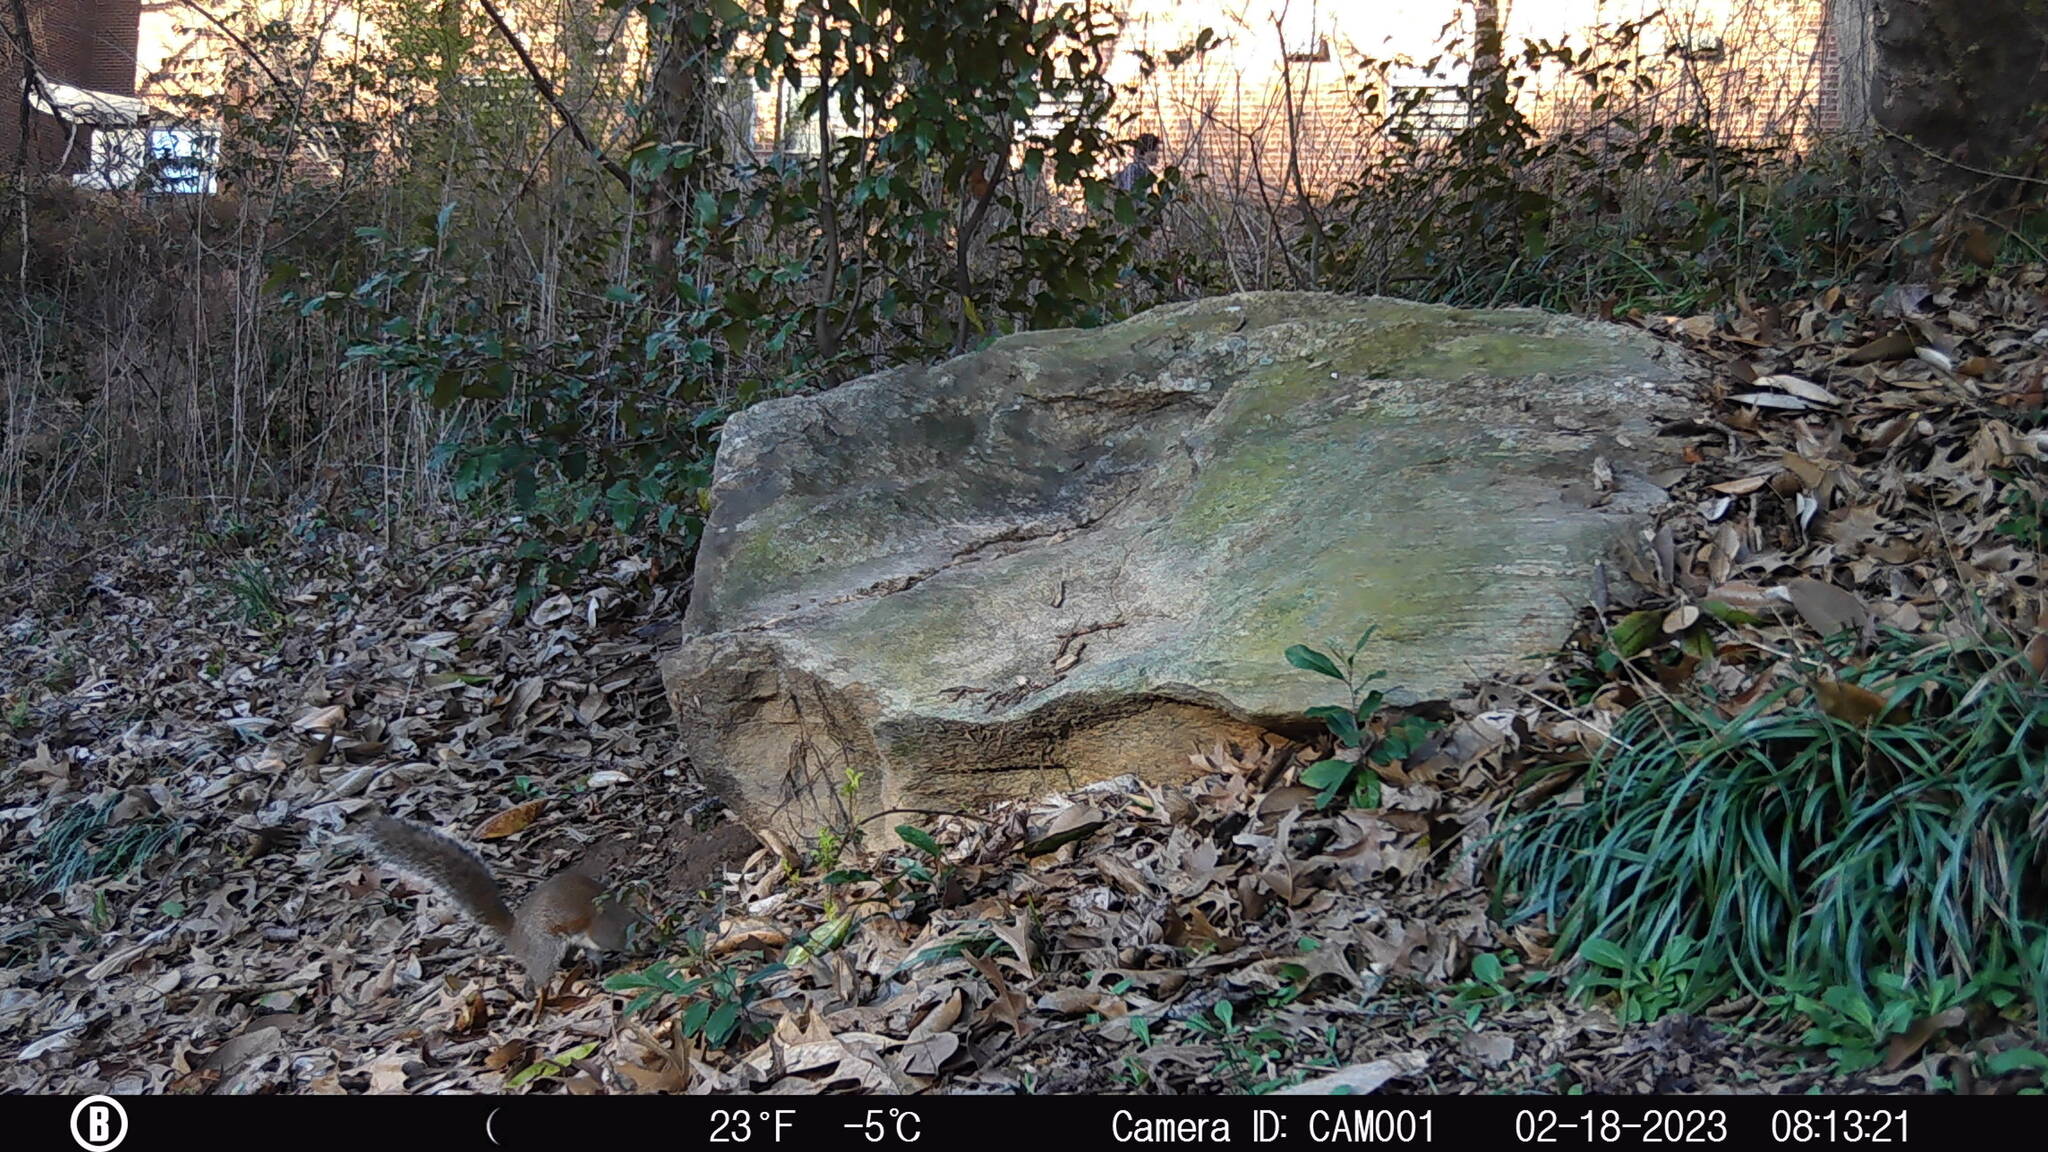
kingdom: Animalia
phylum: Chordata
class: Mammalia
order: Rodentia
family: Sciuridae
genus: Sciurus
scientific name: Sciurus carolinensis
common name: Eastern gray squirrel
